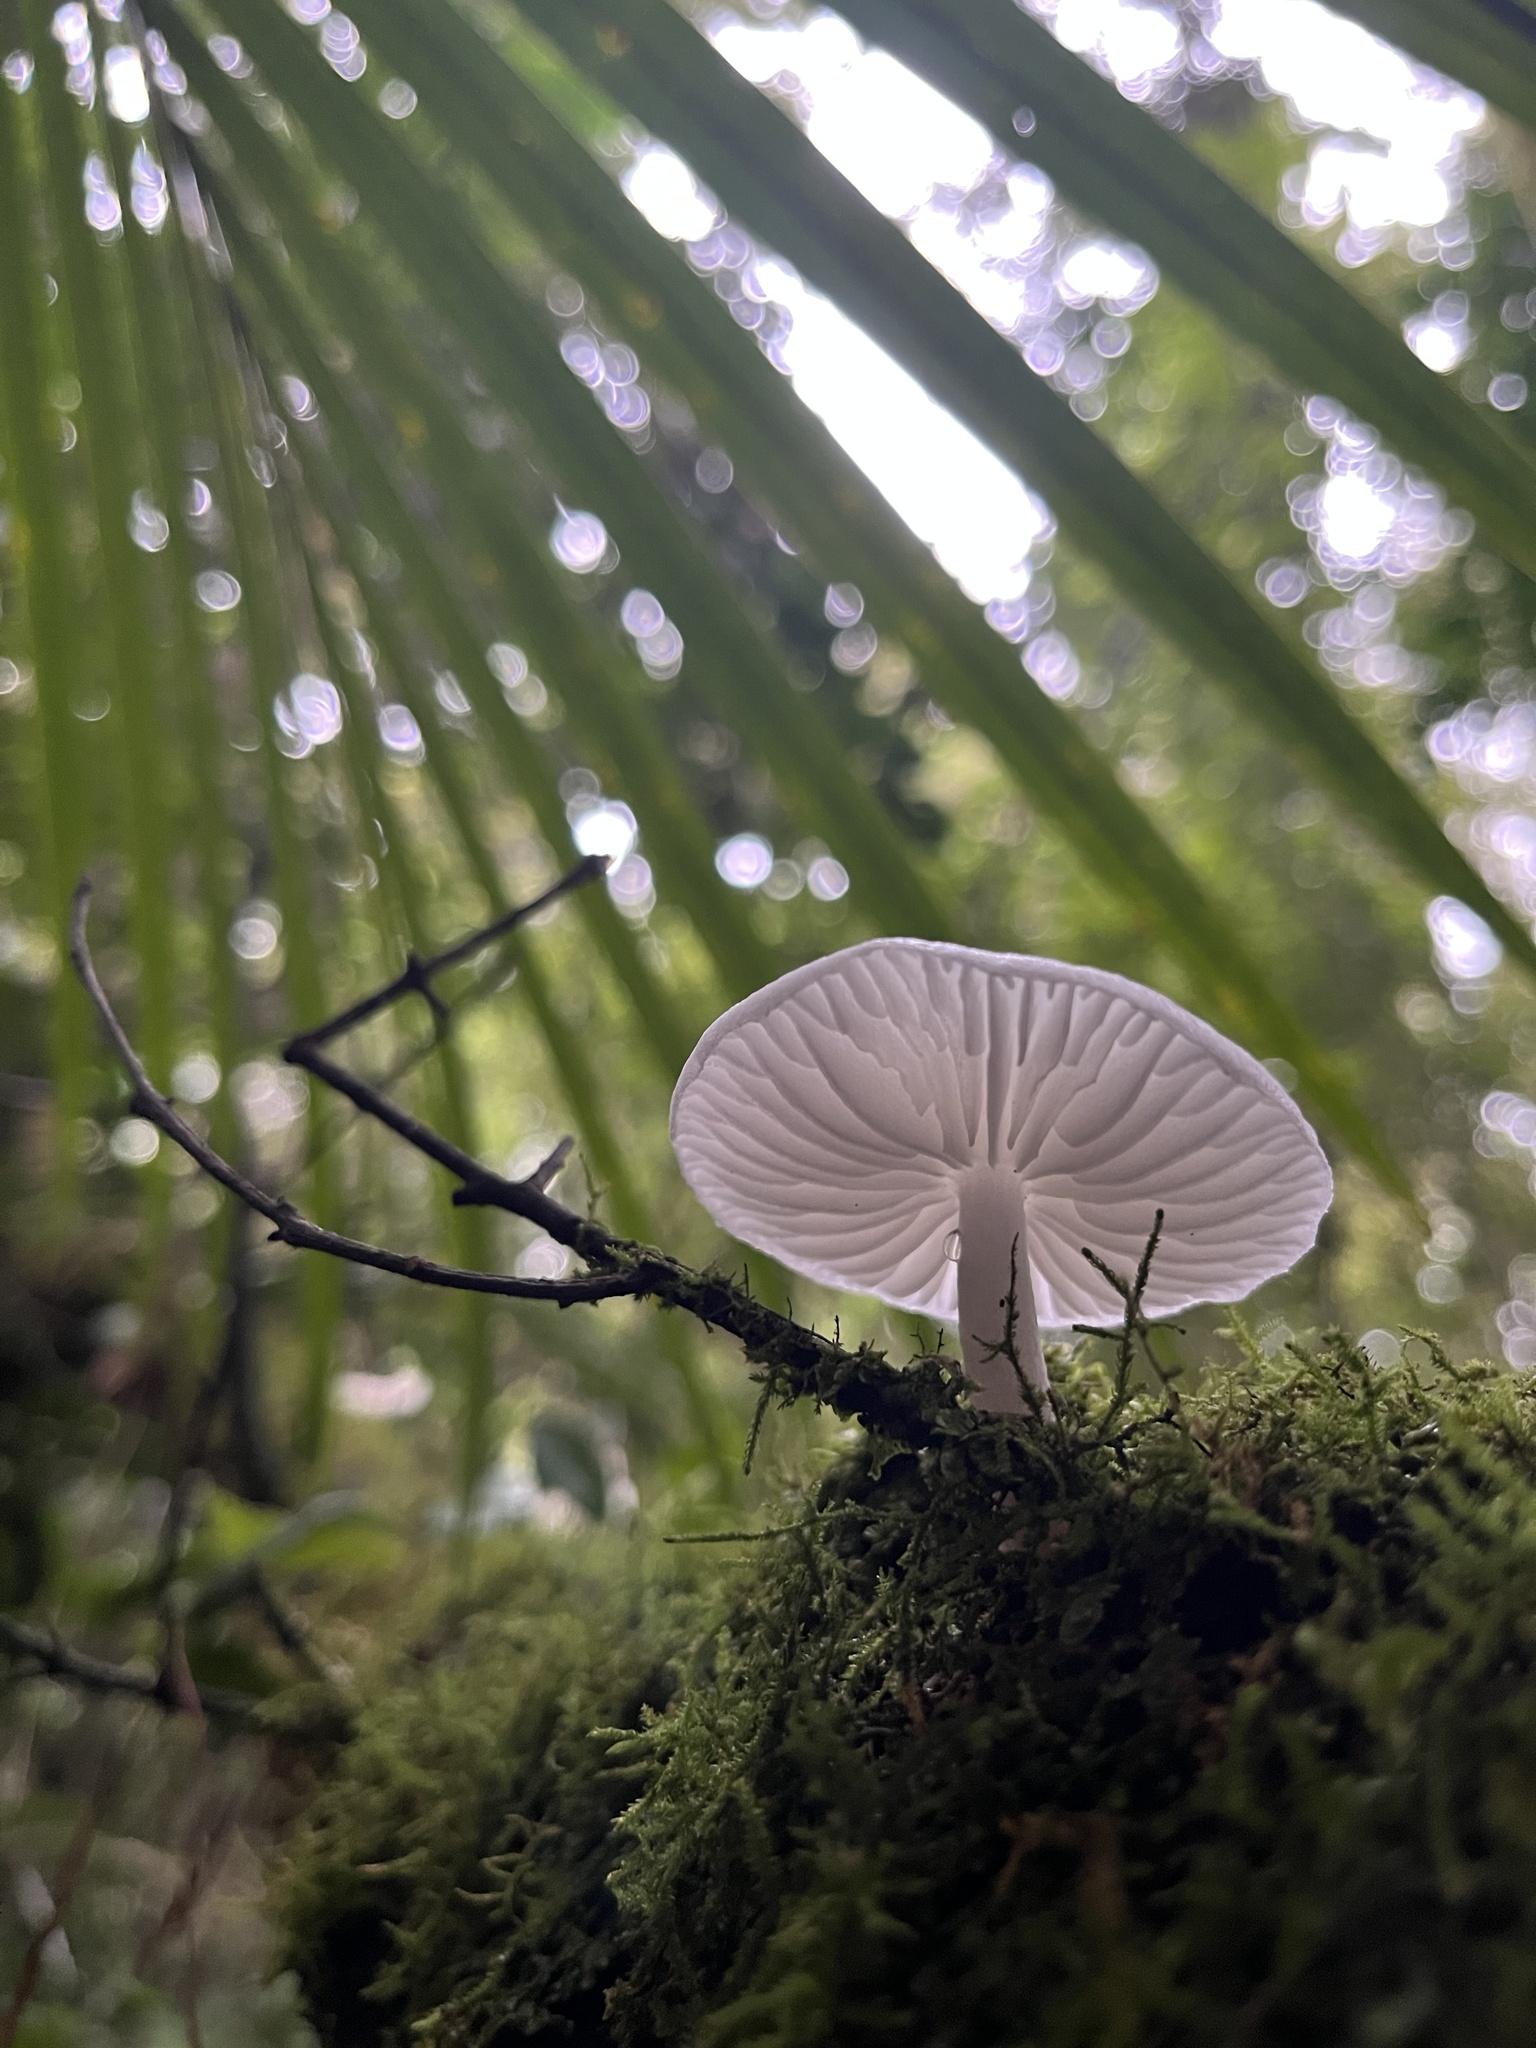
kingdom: Fungi
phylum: Basidiomycota
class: Agaricomycetes
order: Agaricales
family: Physalacriaceae
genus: Oudemansiella
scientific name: Oudemansiella australis
